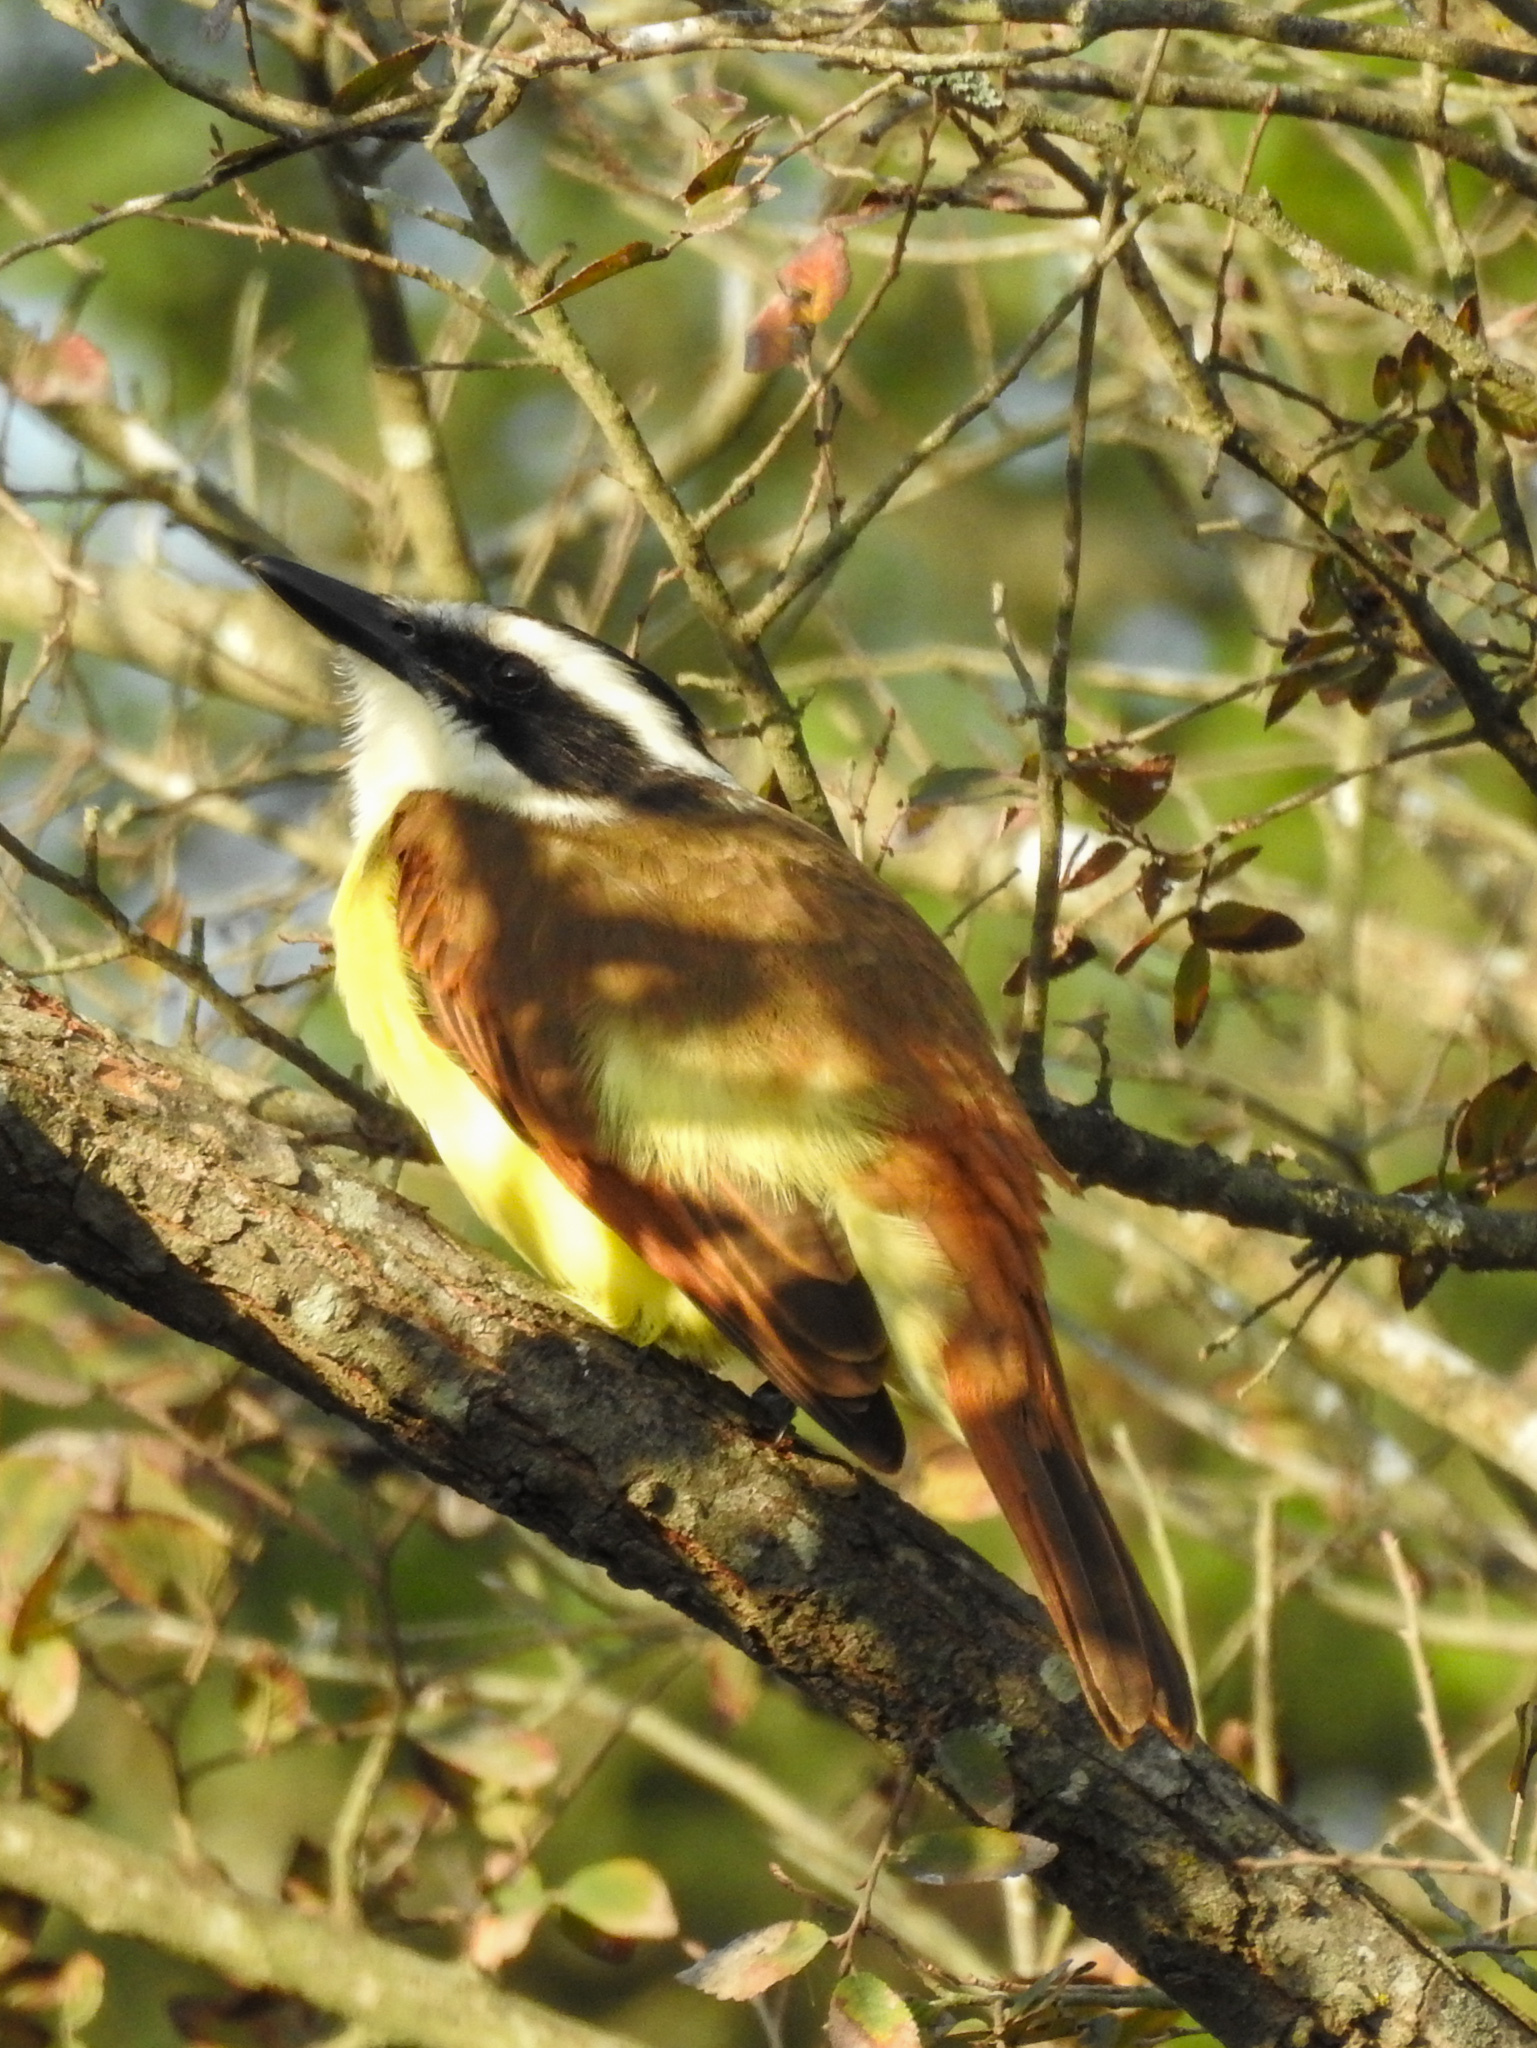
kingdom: Animalia
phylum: Chordata
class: Aves
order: Passeriformes
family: Tyrannidae
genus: Pitangus
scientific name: Pitangus sulphuratus
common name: Great kiskadee
